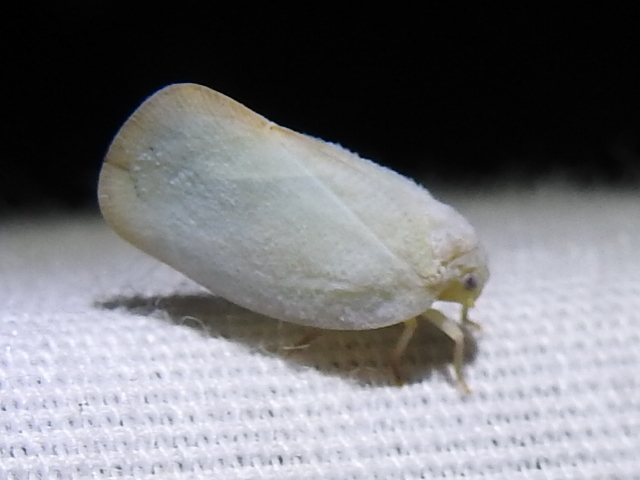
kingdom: Animalia
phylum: Arthropoda
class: Insecta
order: Hemiptera
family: Flatidae
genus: Ormenoides
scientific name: Ormenoides venusta
